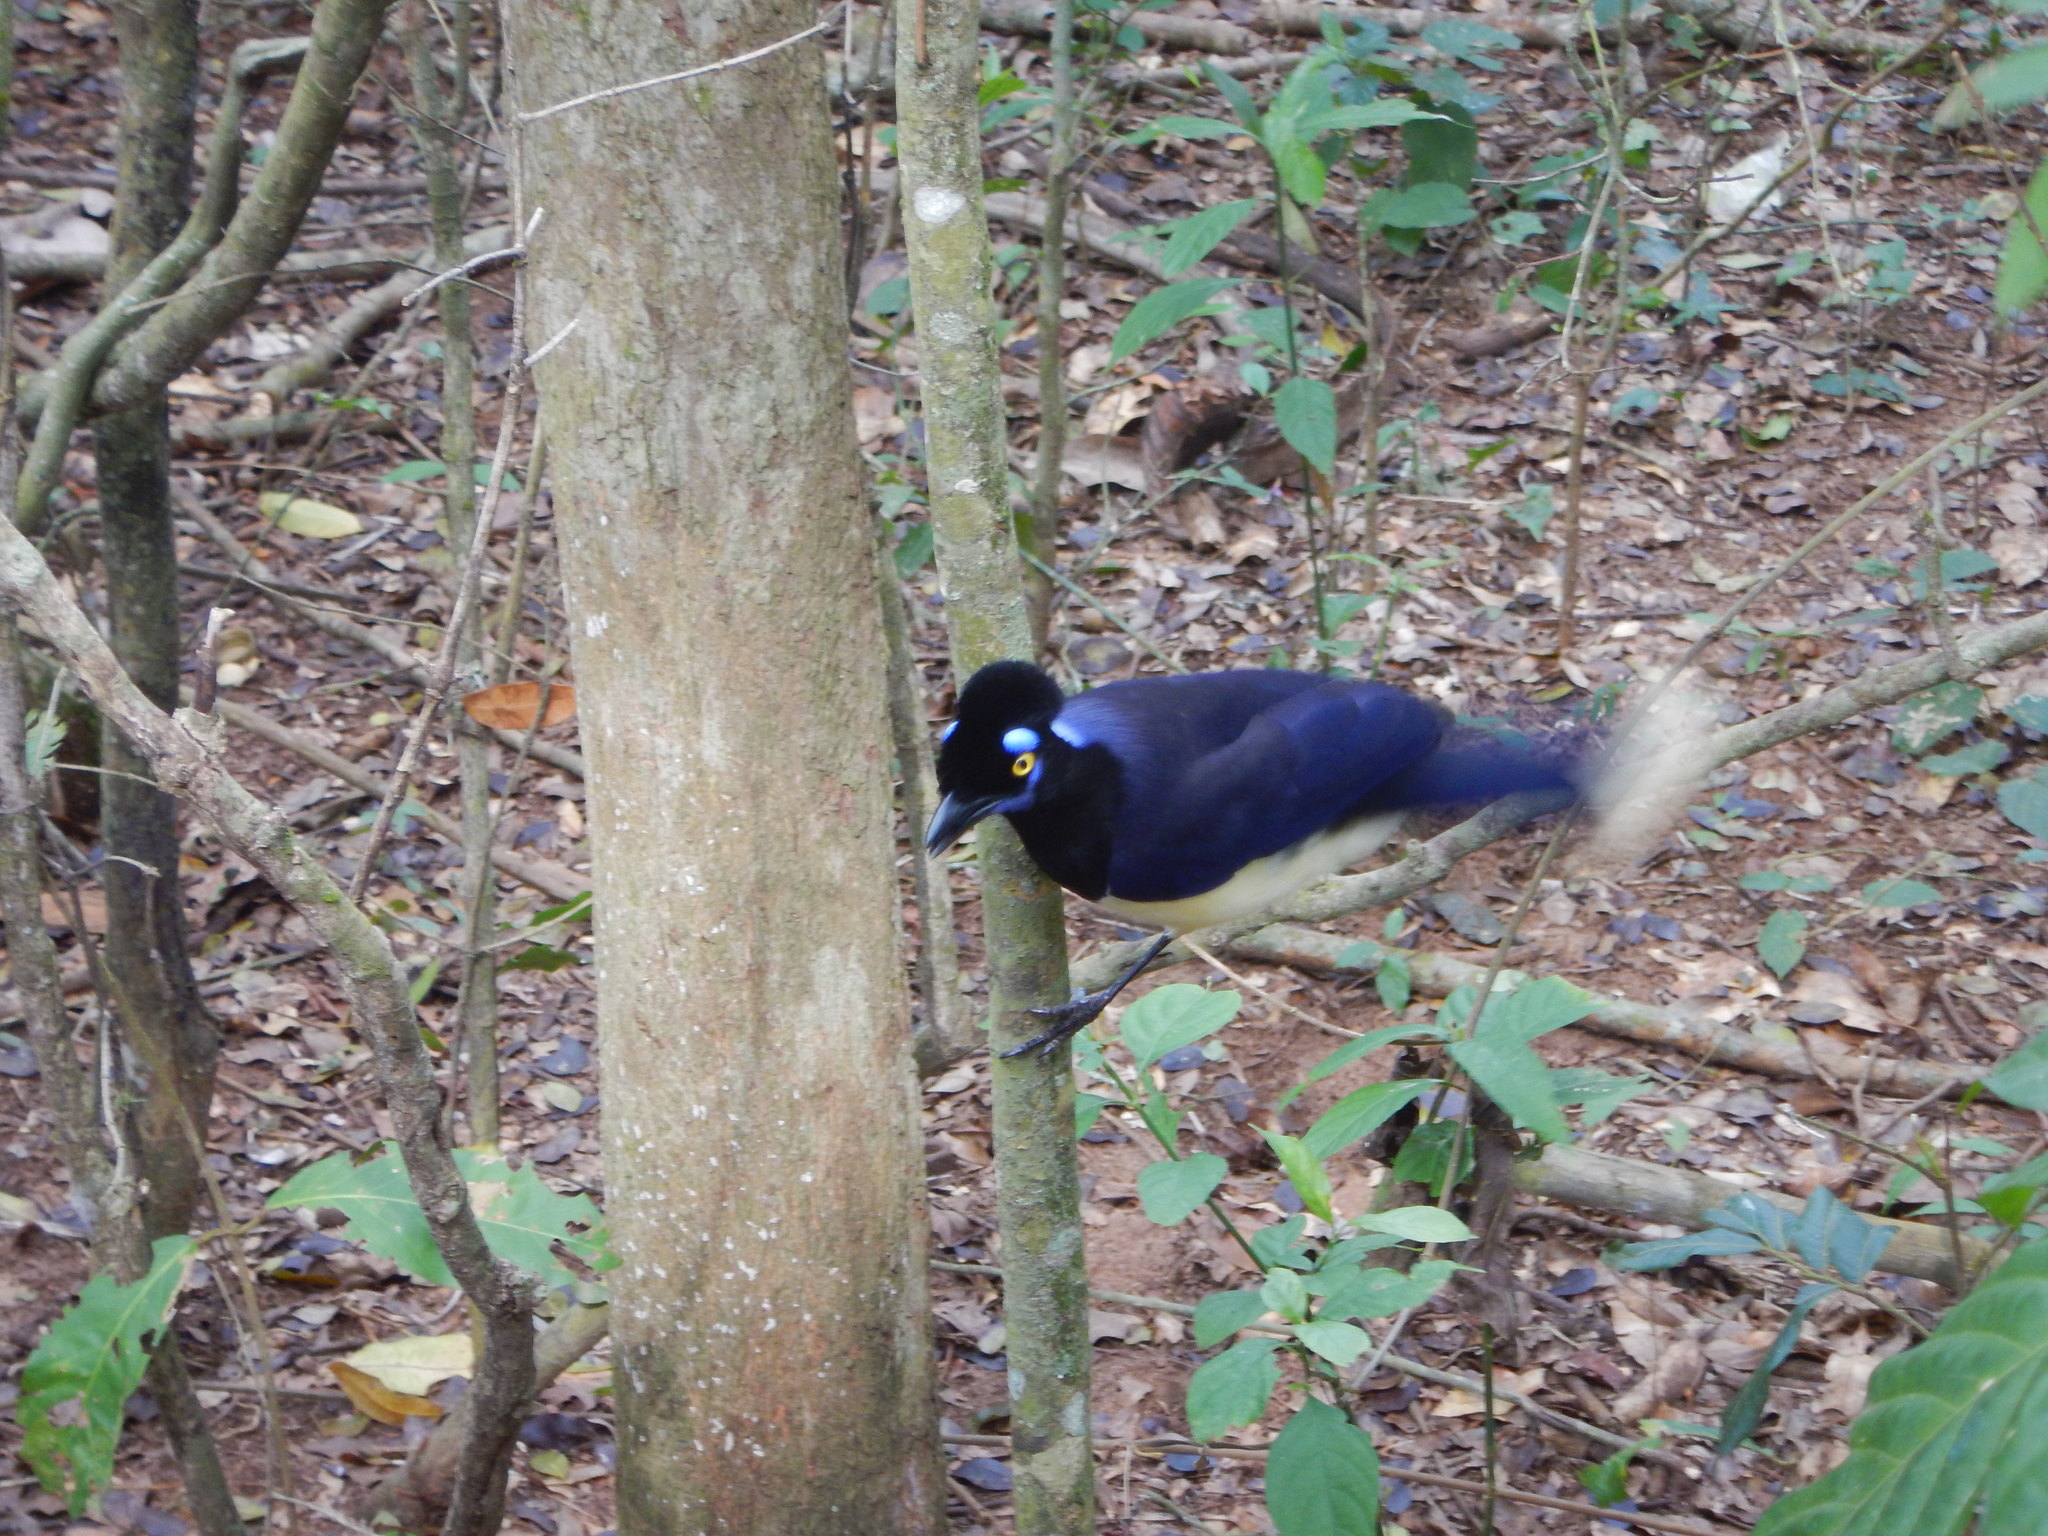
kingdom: Animalia
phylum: Chordata
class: Aves
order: Passeriformes
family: Corvidae
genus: Cyanocorax
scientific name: Cyanocorax chrysops
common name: Plush-crested jay
